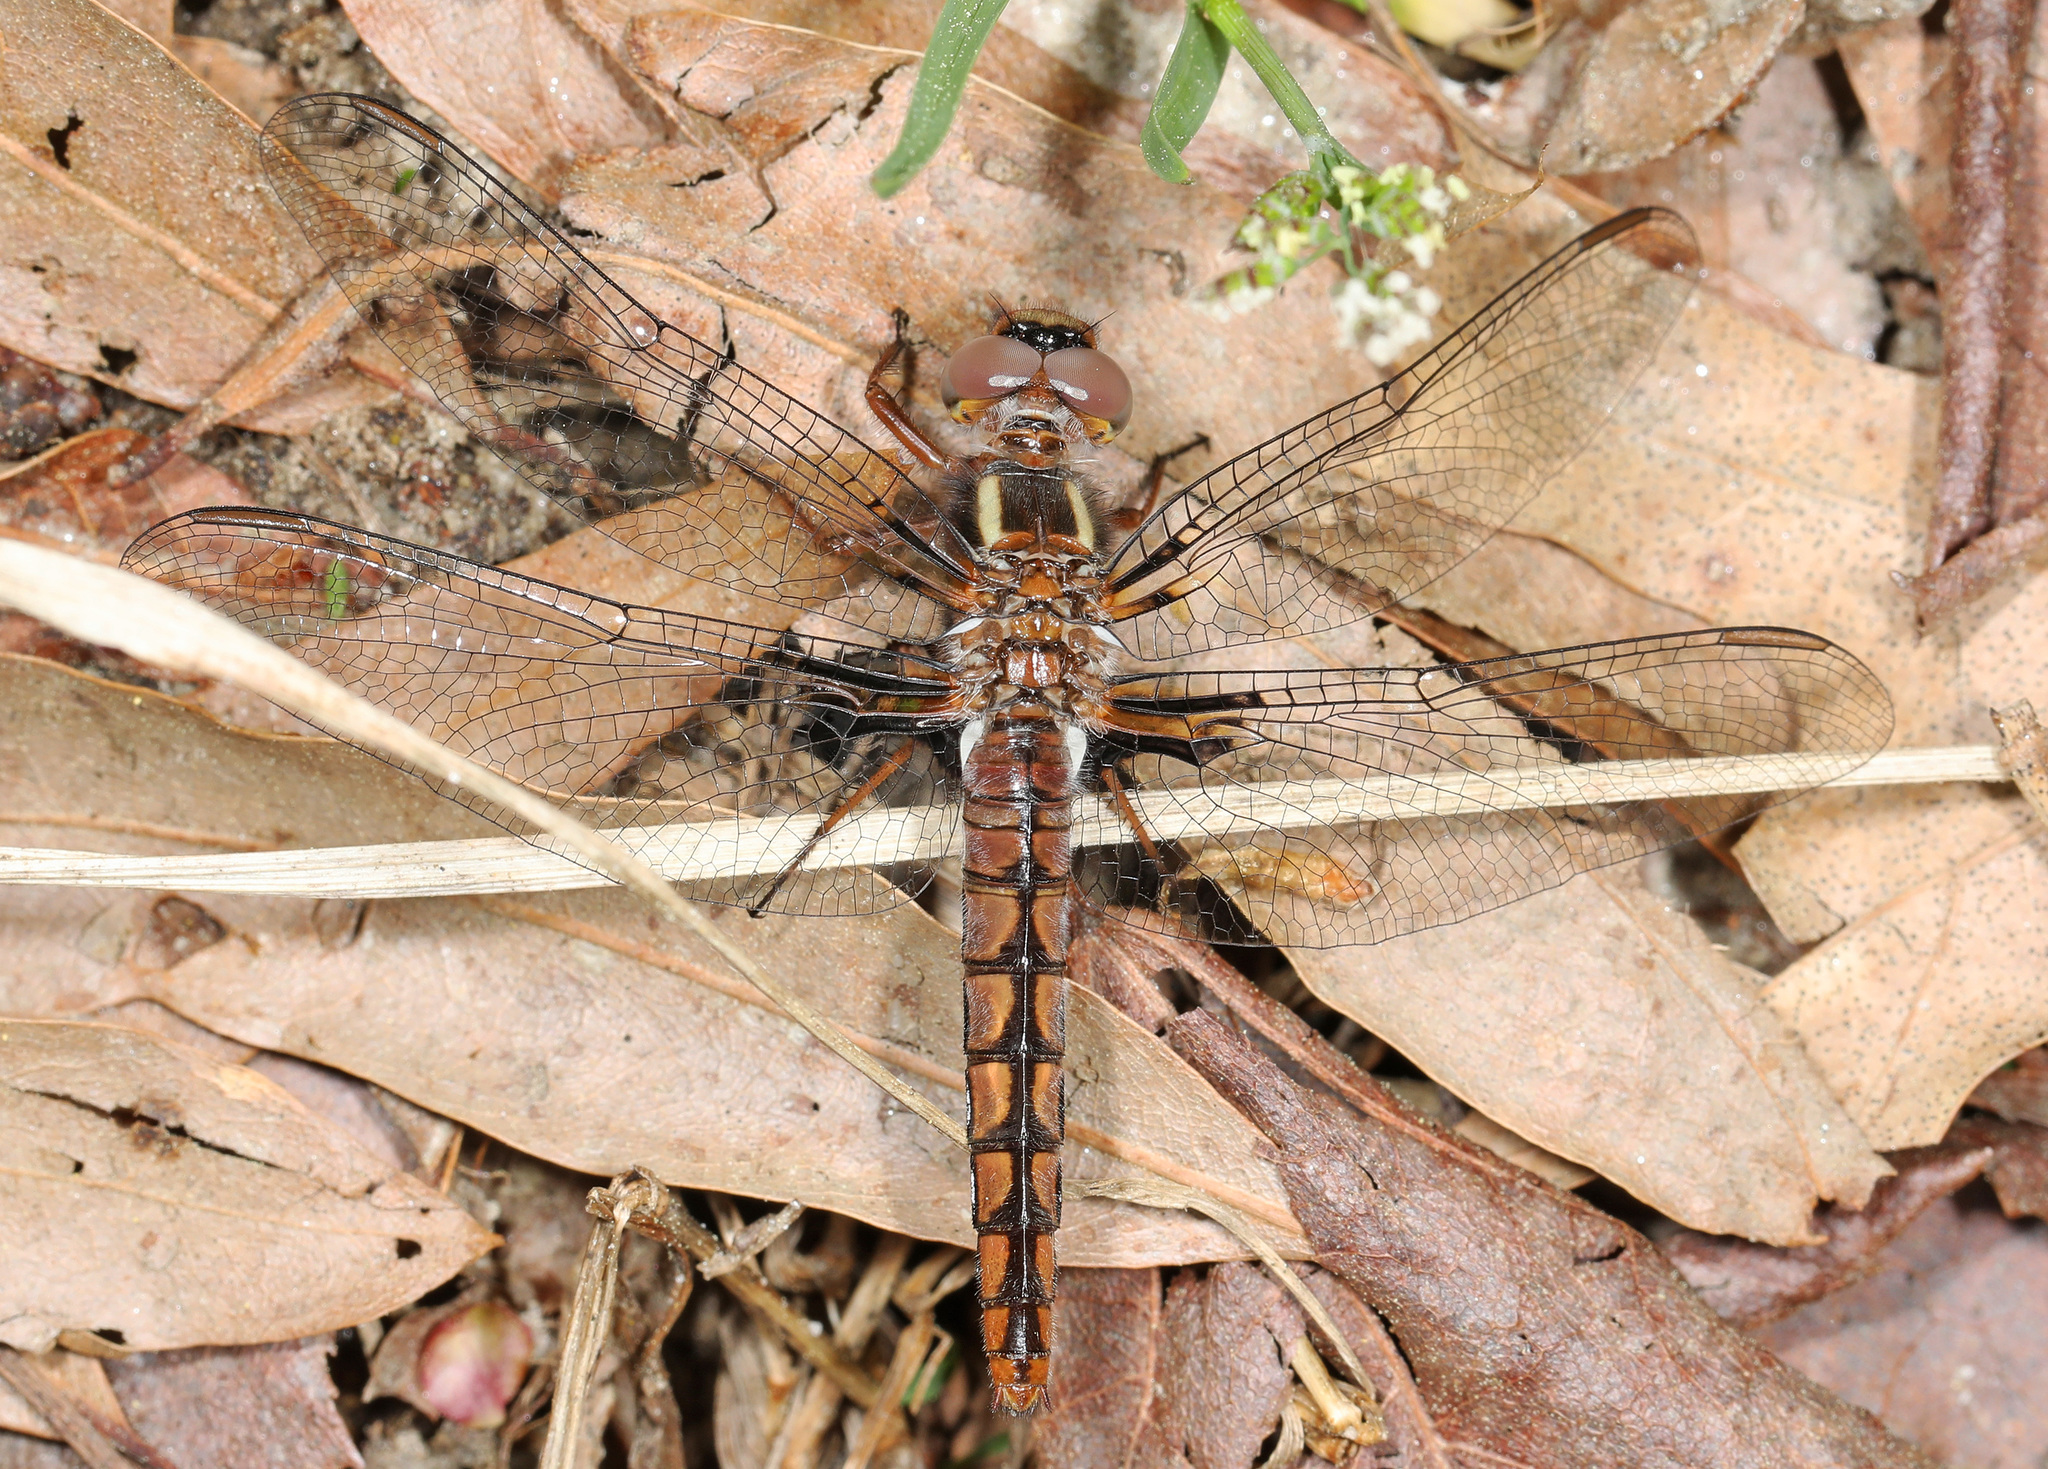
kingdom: Animalia
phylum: Arthropoda
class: Insecta
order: Odonata
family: Libellulidae
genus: Ladona
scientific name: Ladona deplanata
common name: Blue corporal
